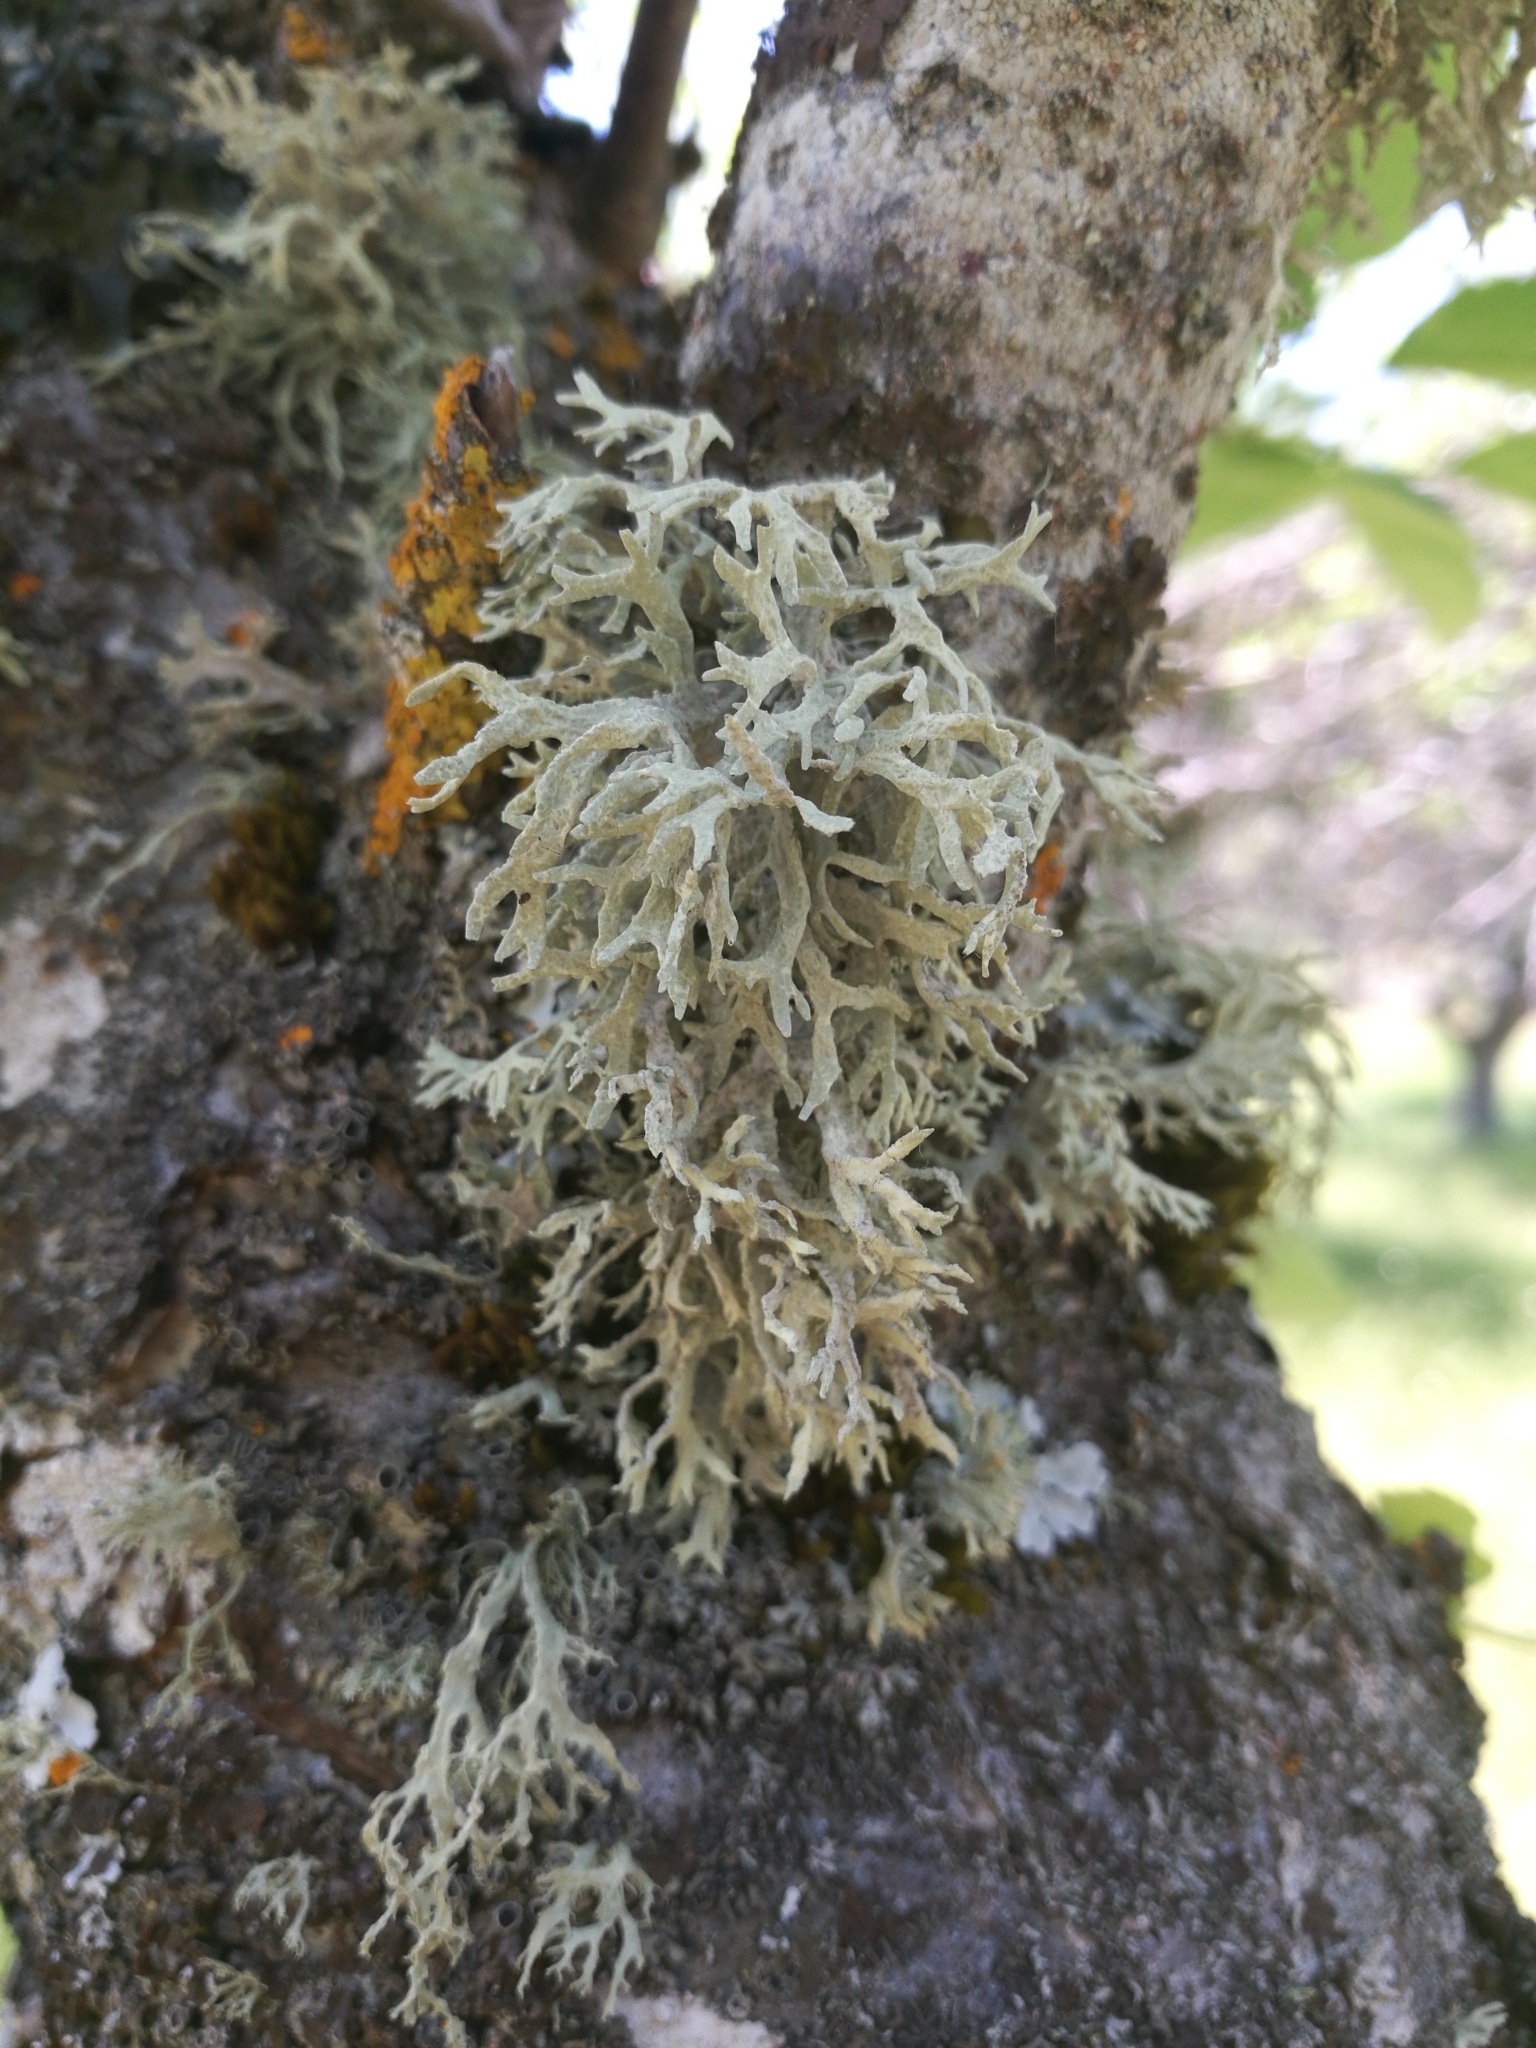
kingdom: Fungi
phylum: Ascomycota
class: Lecanoromycetes
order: Lecanorales
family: Parmeliaceae
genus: Evernia
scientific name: Evernia prunastri
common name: Oak moss
